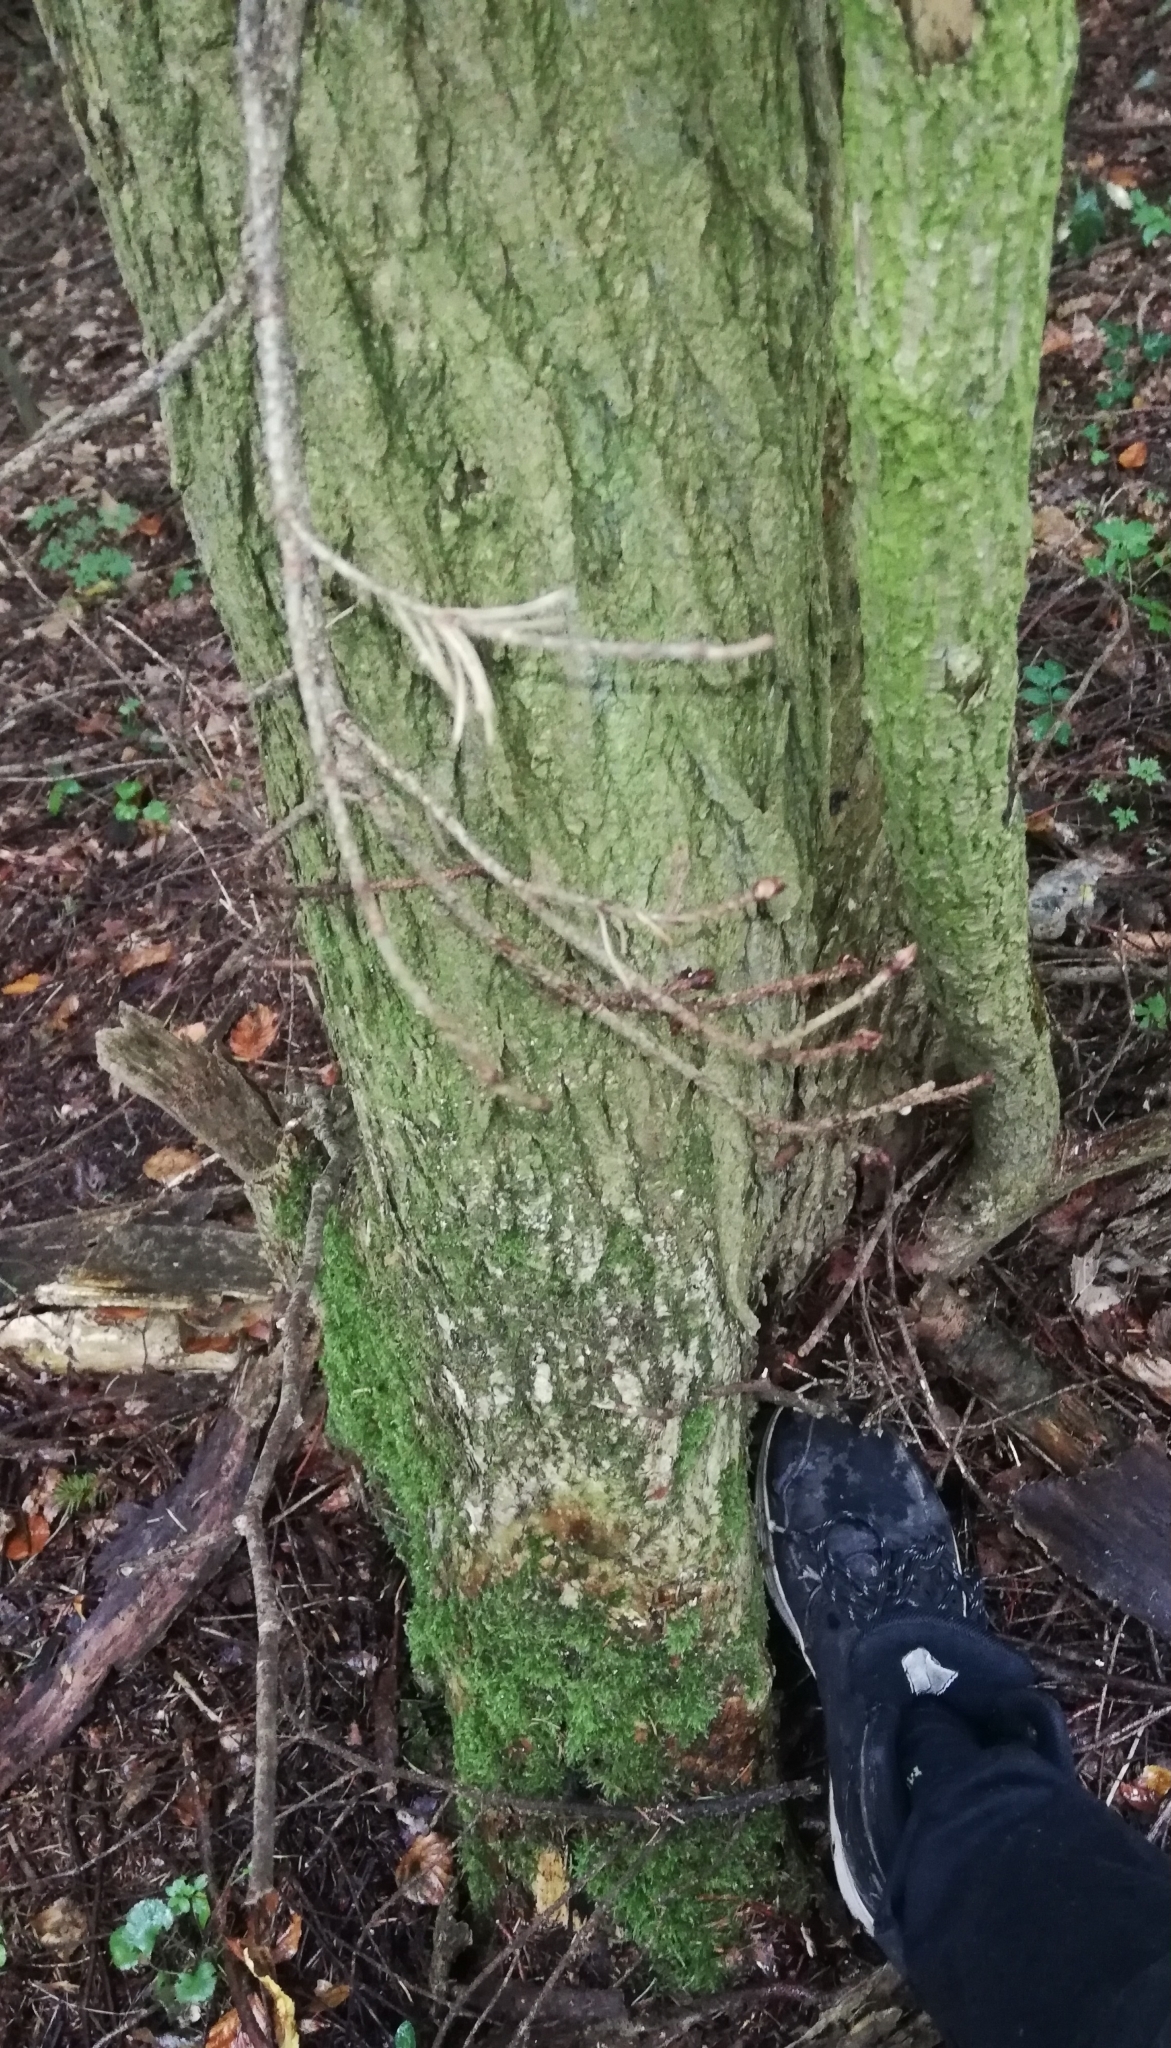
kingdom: Plantae
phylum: Tracheophyta
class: Magnoliopsida
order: Rosales
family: Ulmaceae
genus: Ulmus
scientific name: Ulmus glabra
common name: Wych elm
